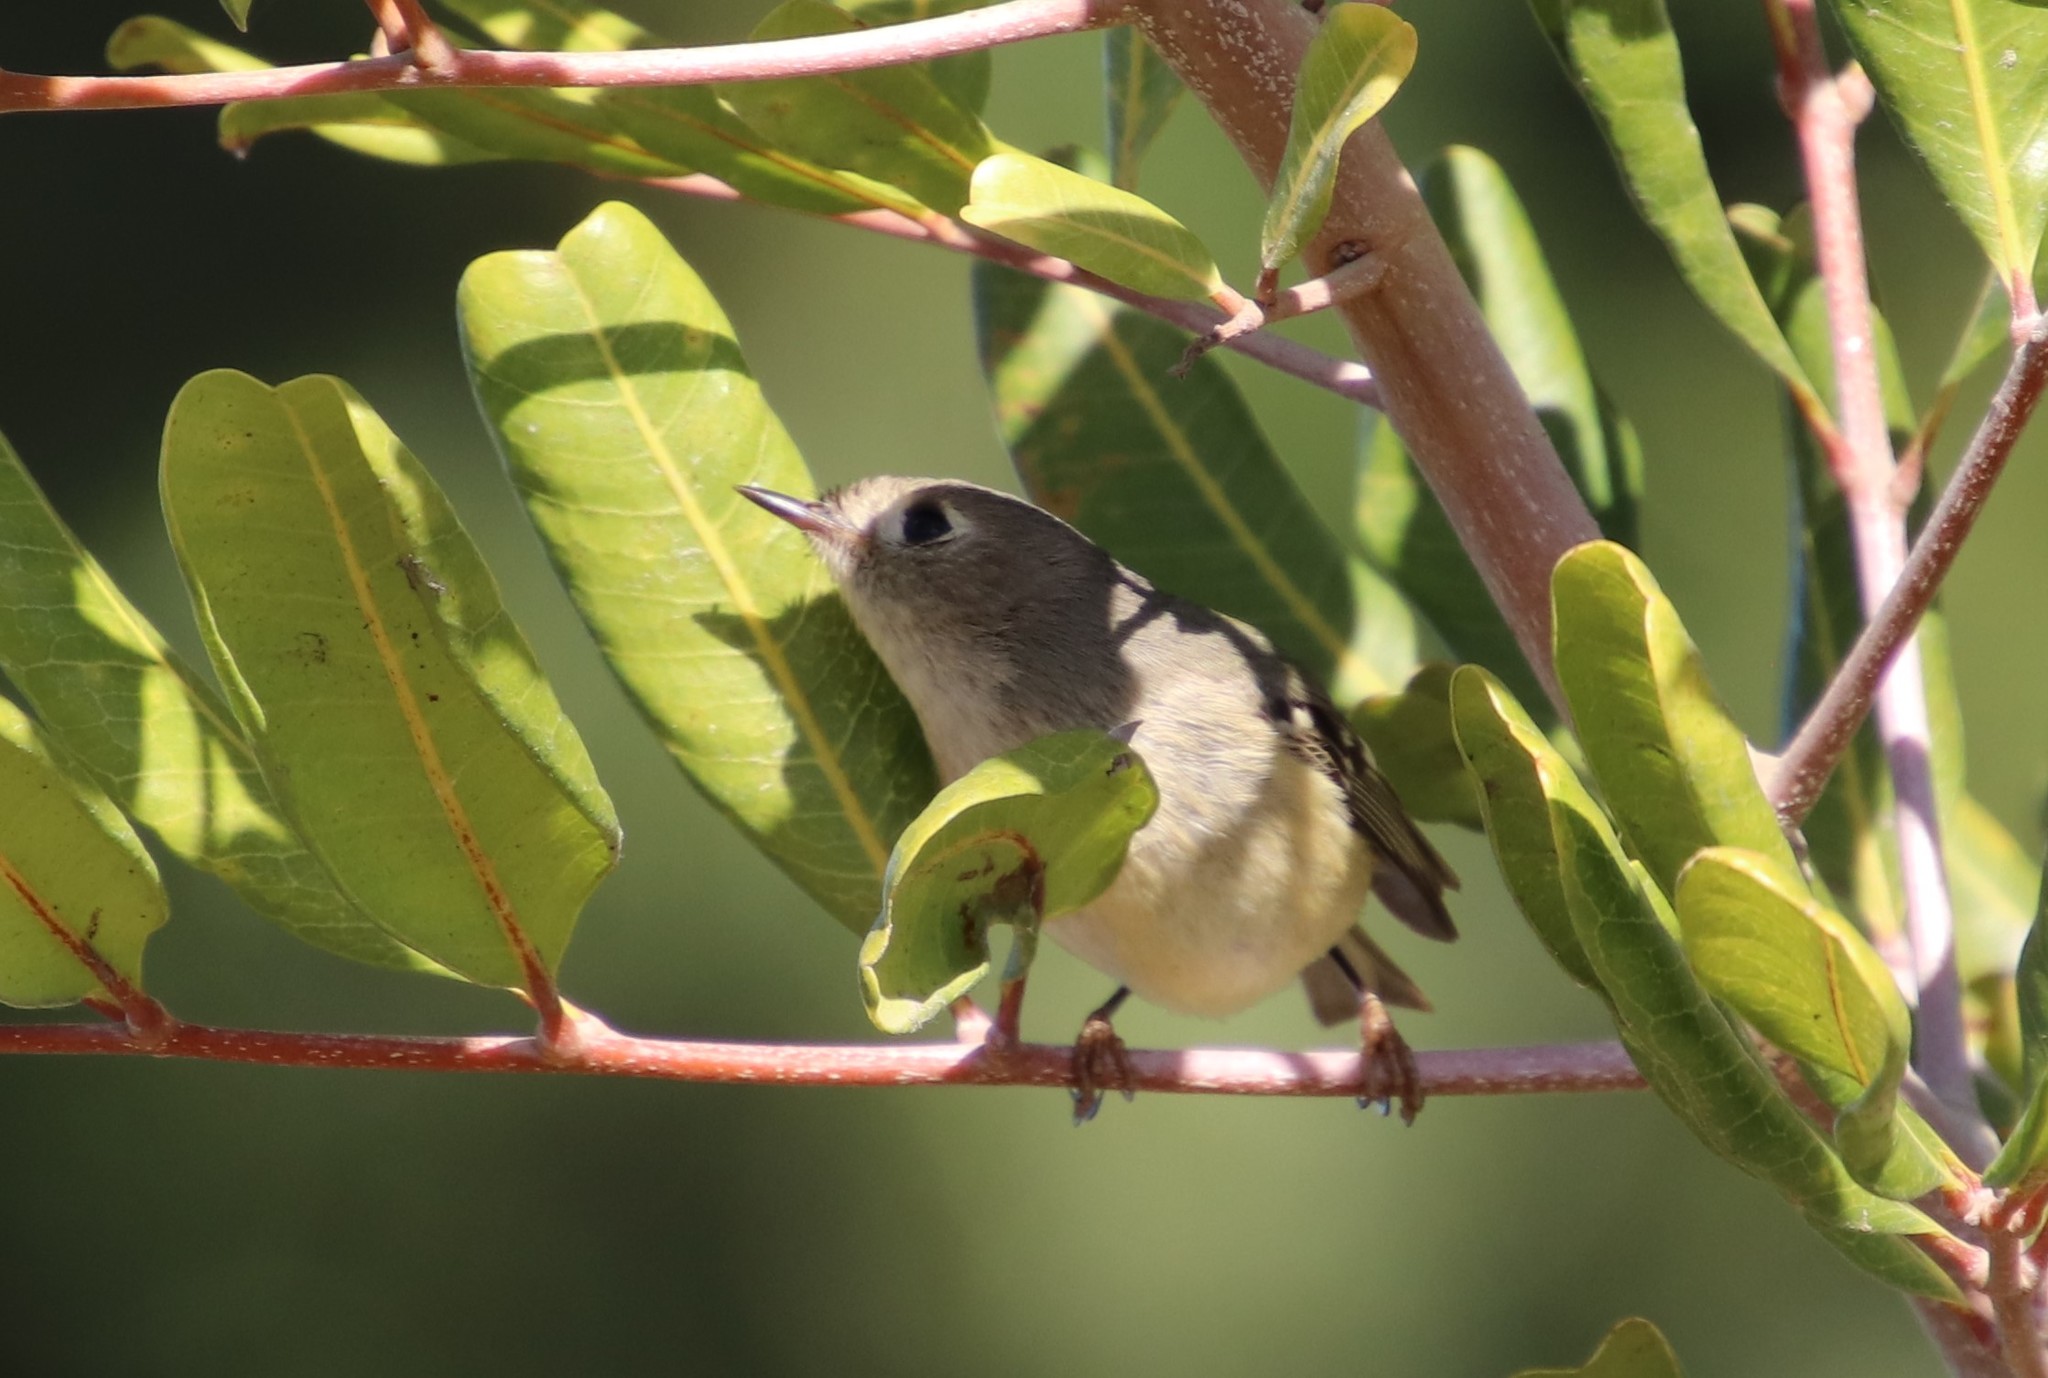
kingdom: Animalia
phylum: Chordata
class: Aves
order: Passeriformes
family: Regulidae
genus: Regulus
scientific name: Regulus calendula
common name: Ruby-crowned kinglet
